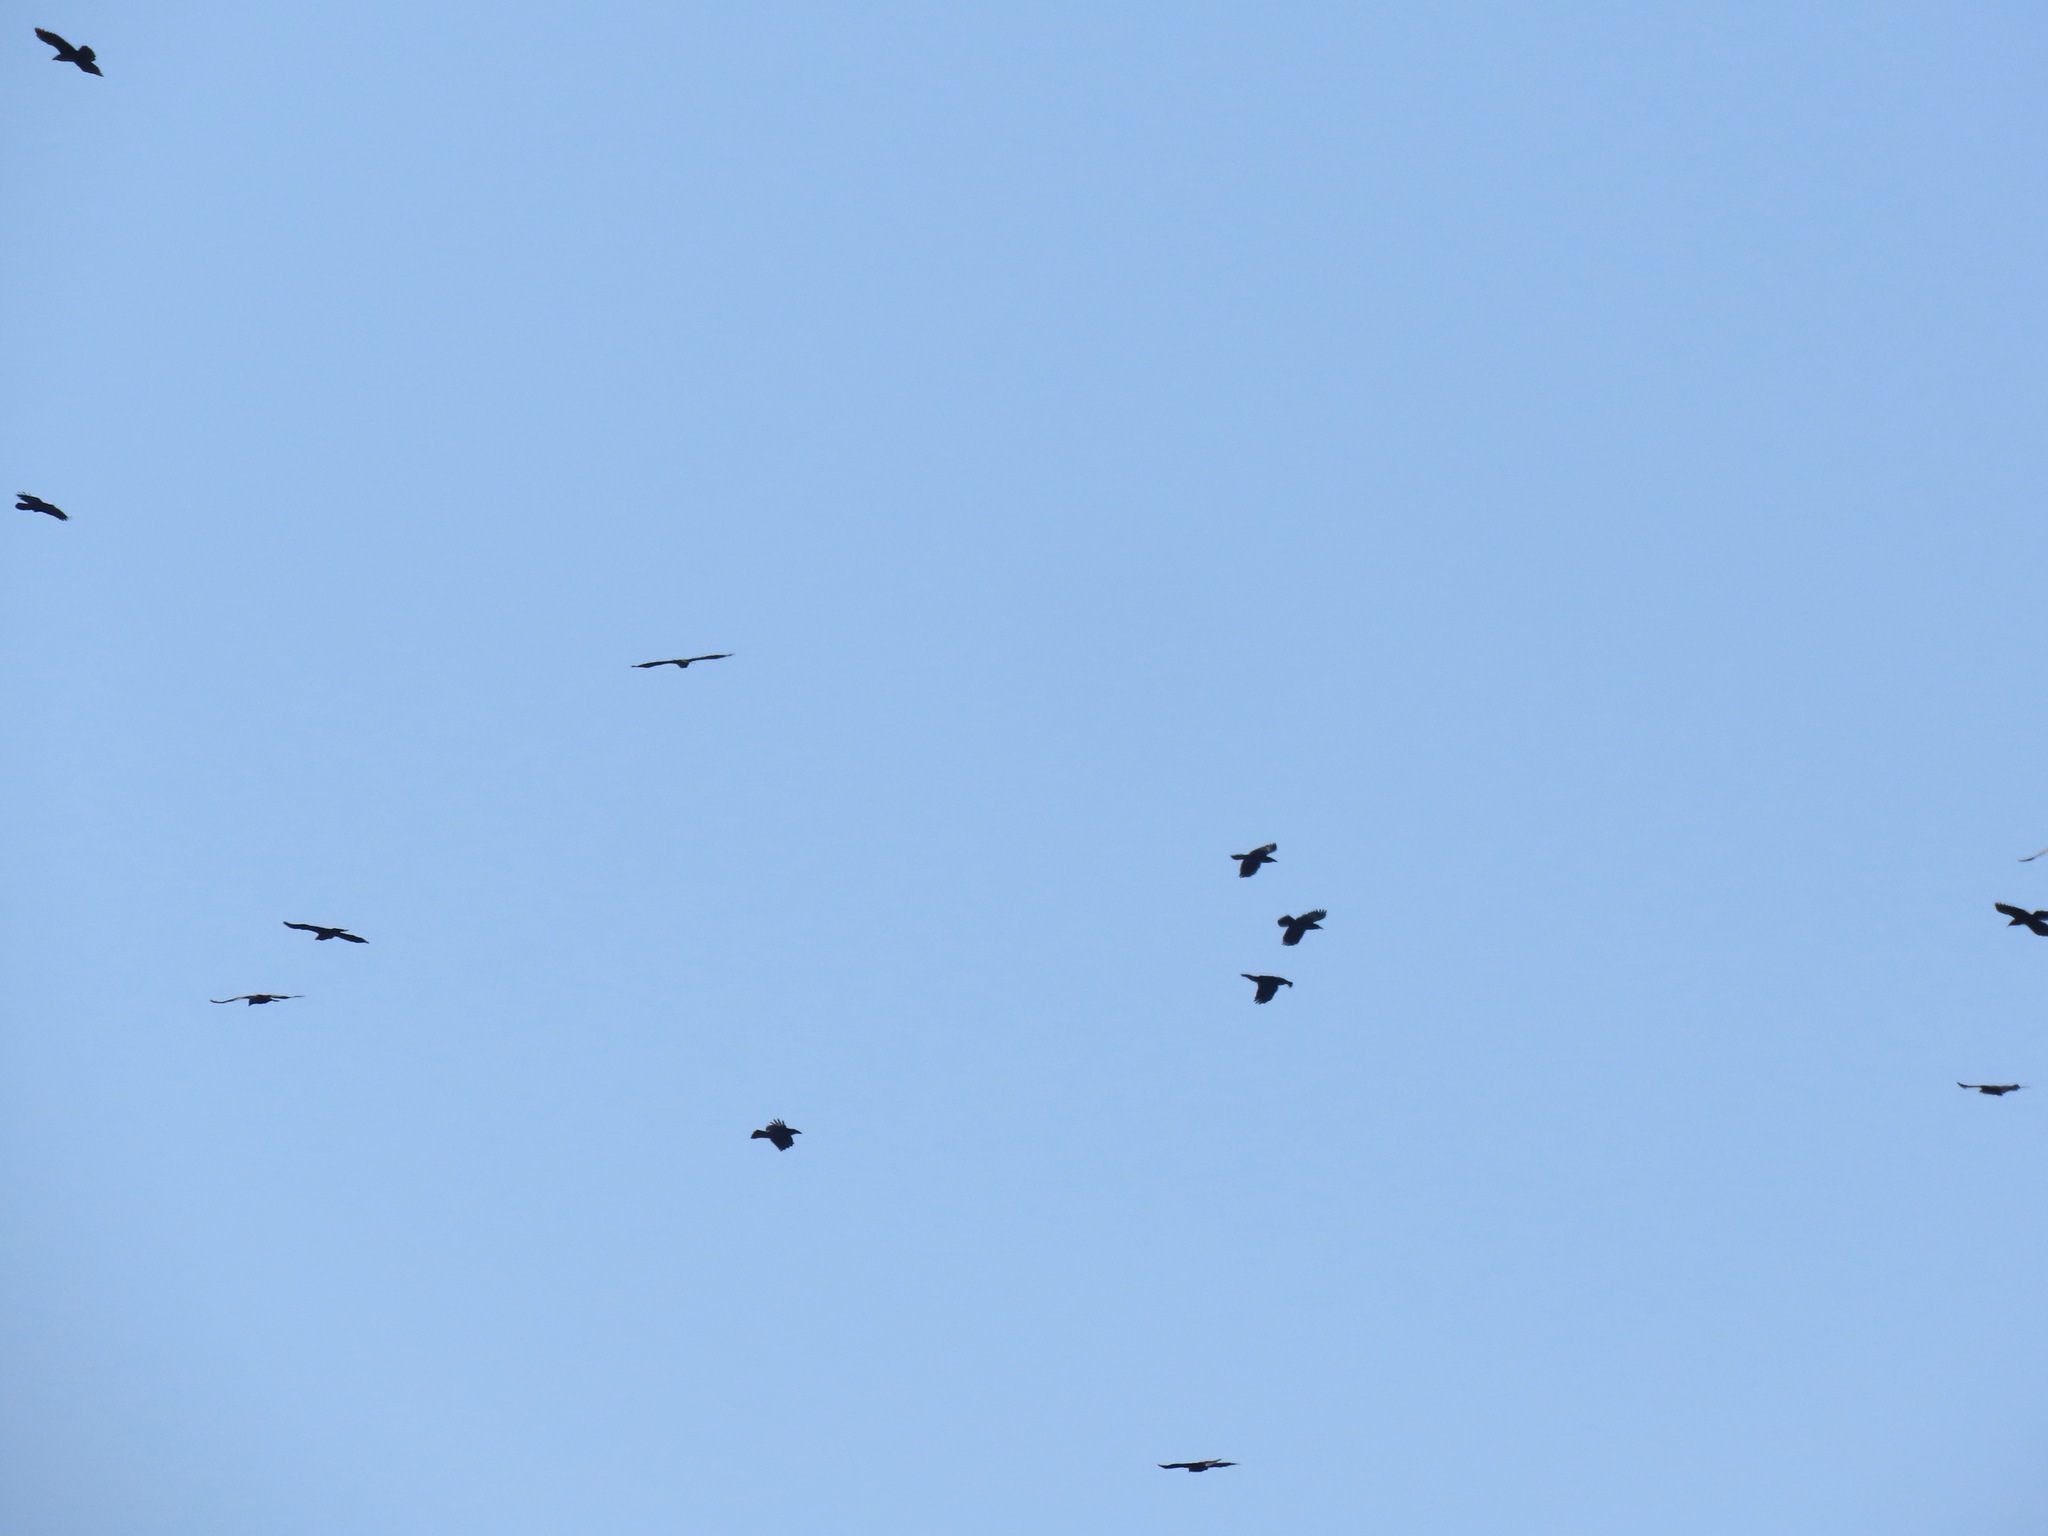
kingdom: Animalia
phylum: Chordata
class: Aves
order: Passeriformes
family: Corvidae
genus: Corvus
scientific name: Corvus corax
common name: Common raven
